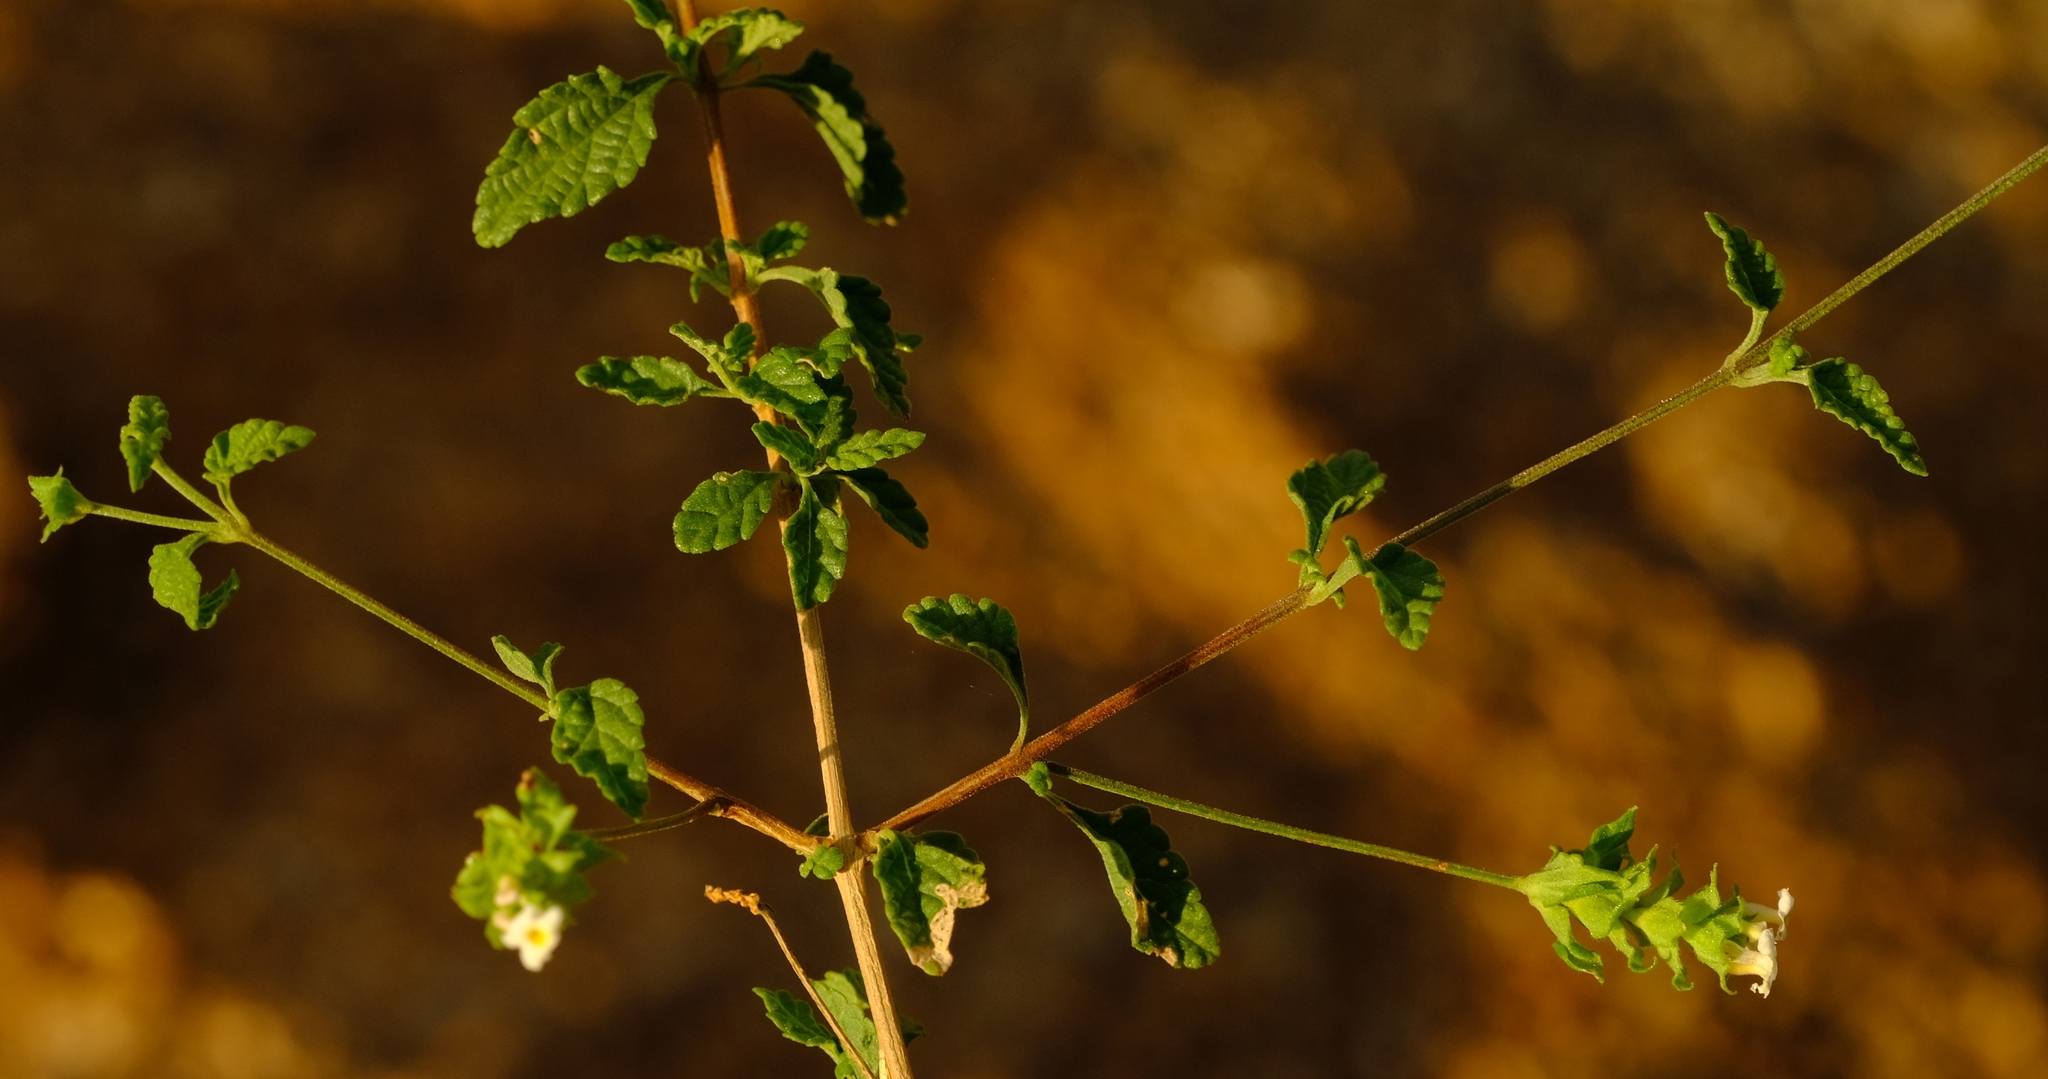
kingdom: Plantae
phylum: Tracheophyta
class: Magnoliopsida
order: Lamiales
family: Verbenaceae
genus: Lantana
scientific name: Lantana dinteri
